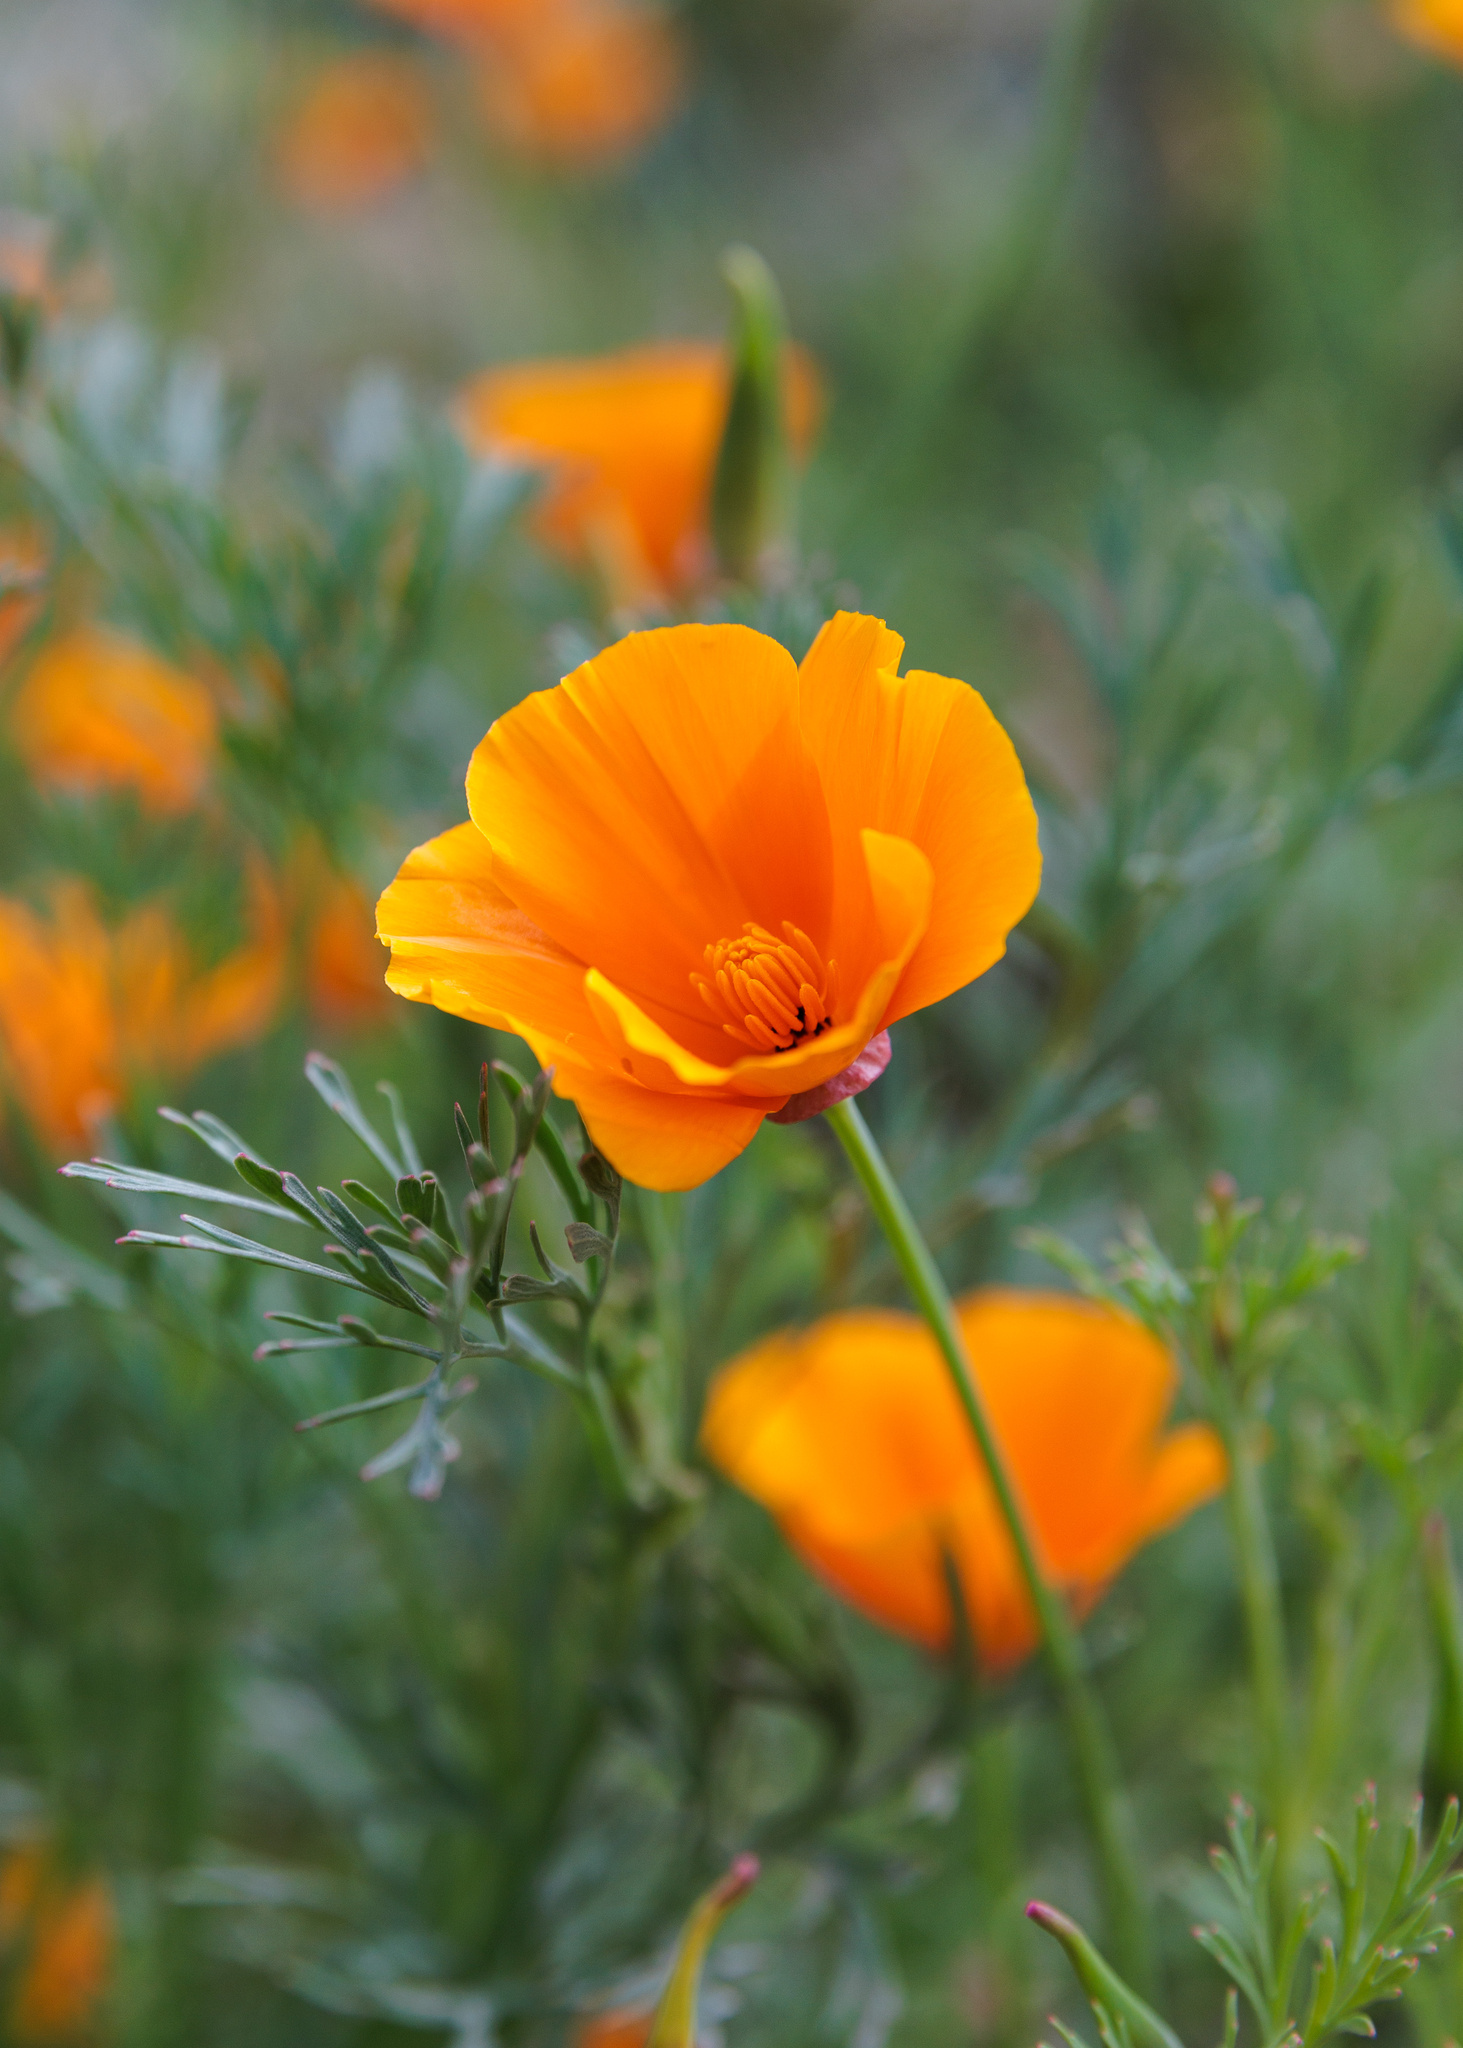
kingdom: Plantae
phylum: Tracheophyta
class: Magnoliopsida
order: Ranunculales
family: Papaveraceae
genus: Eschscholzia
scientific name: Eschscholzia californica
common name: California poppy
